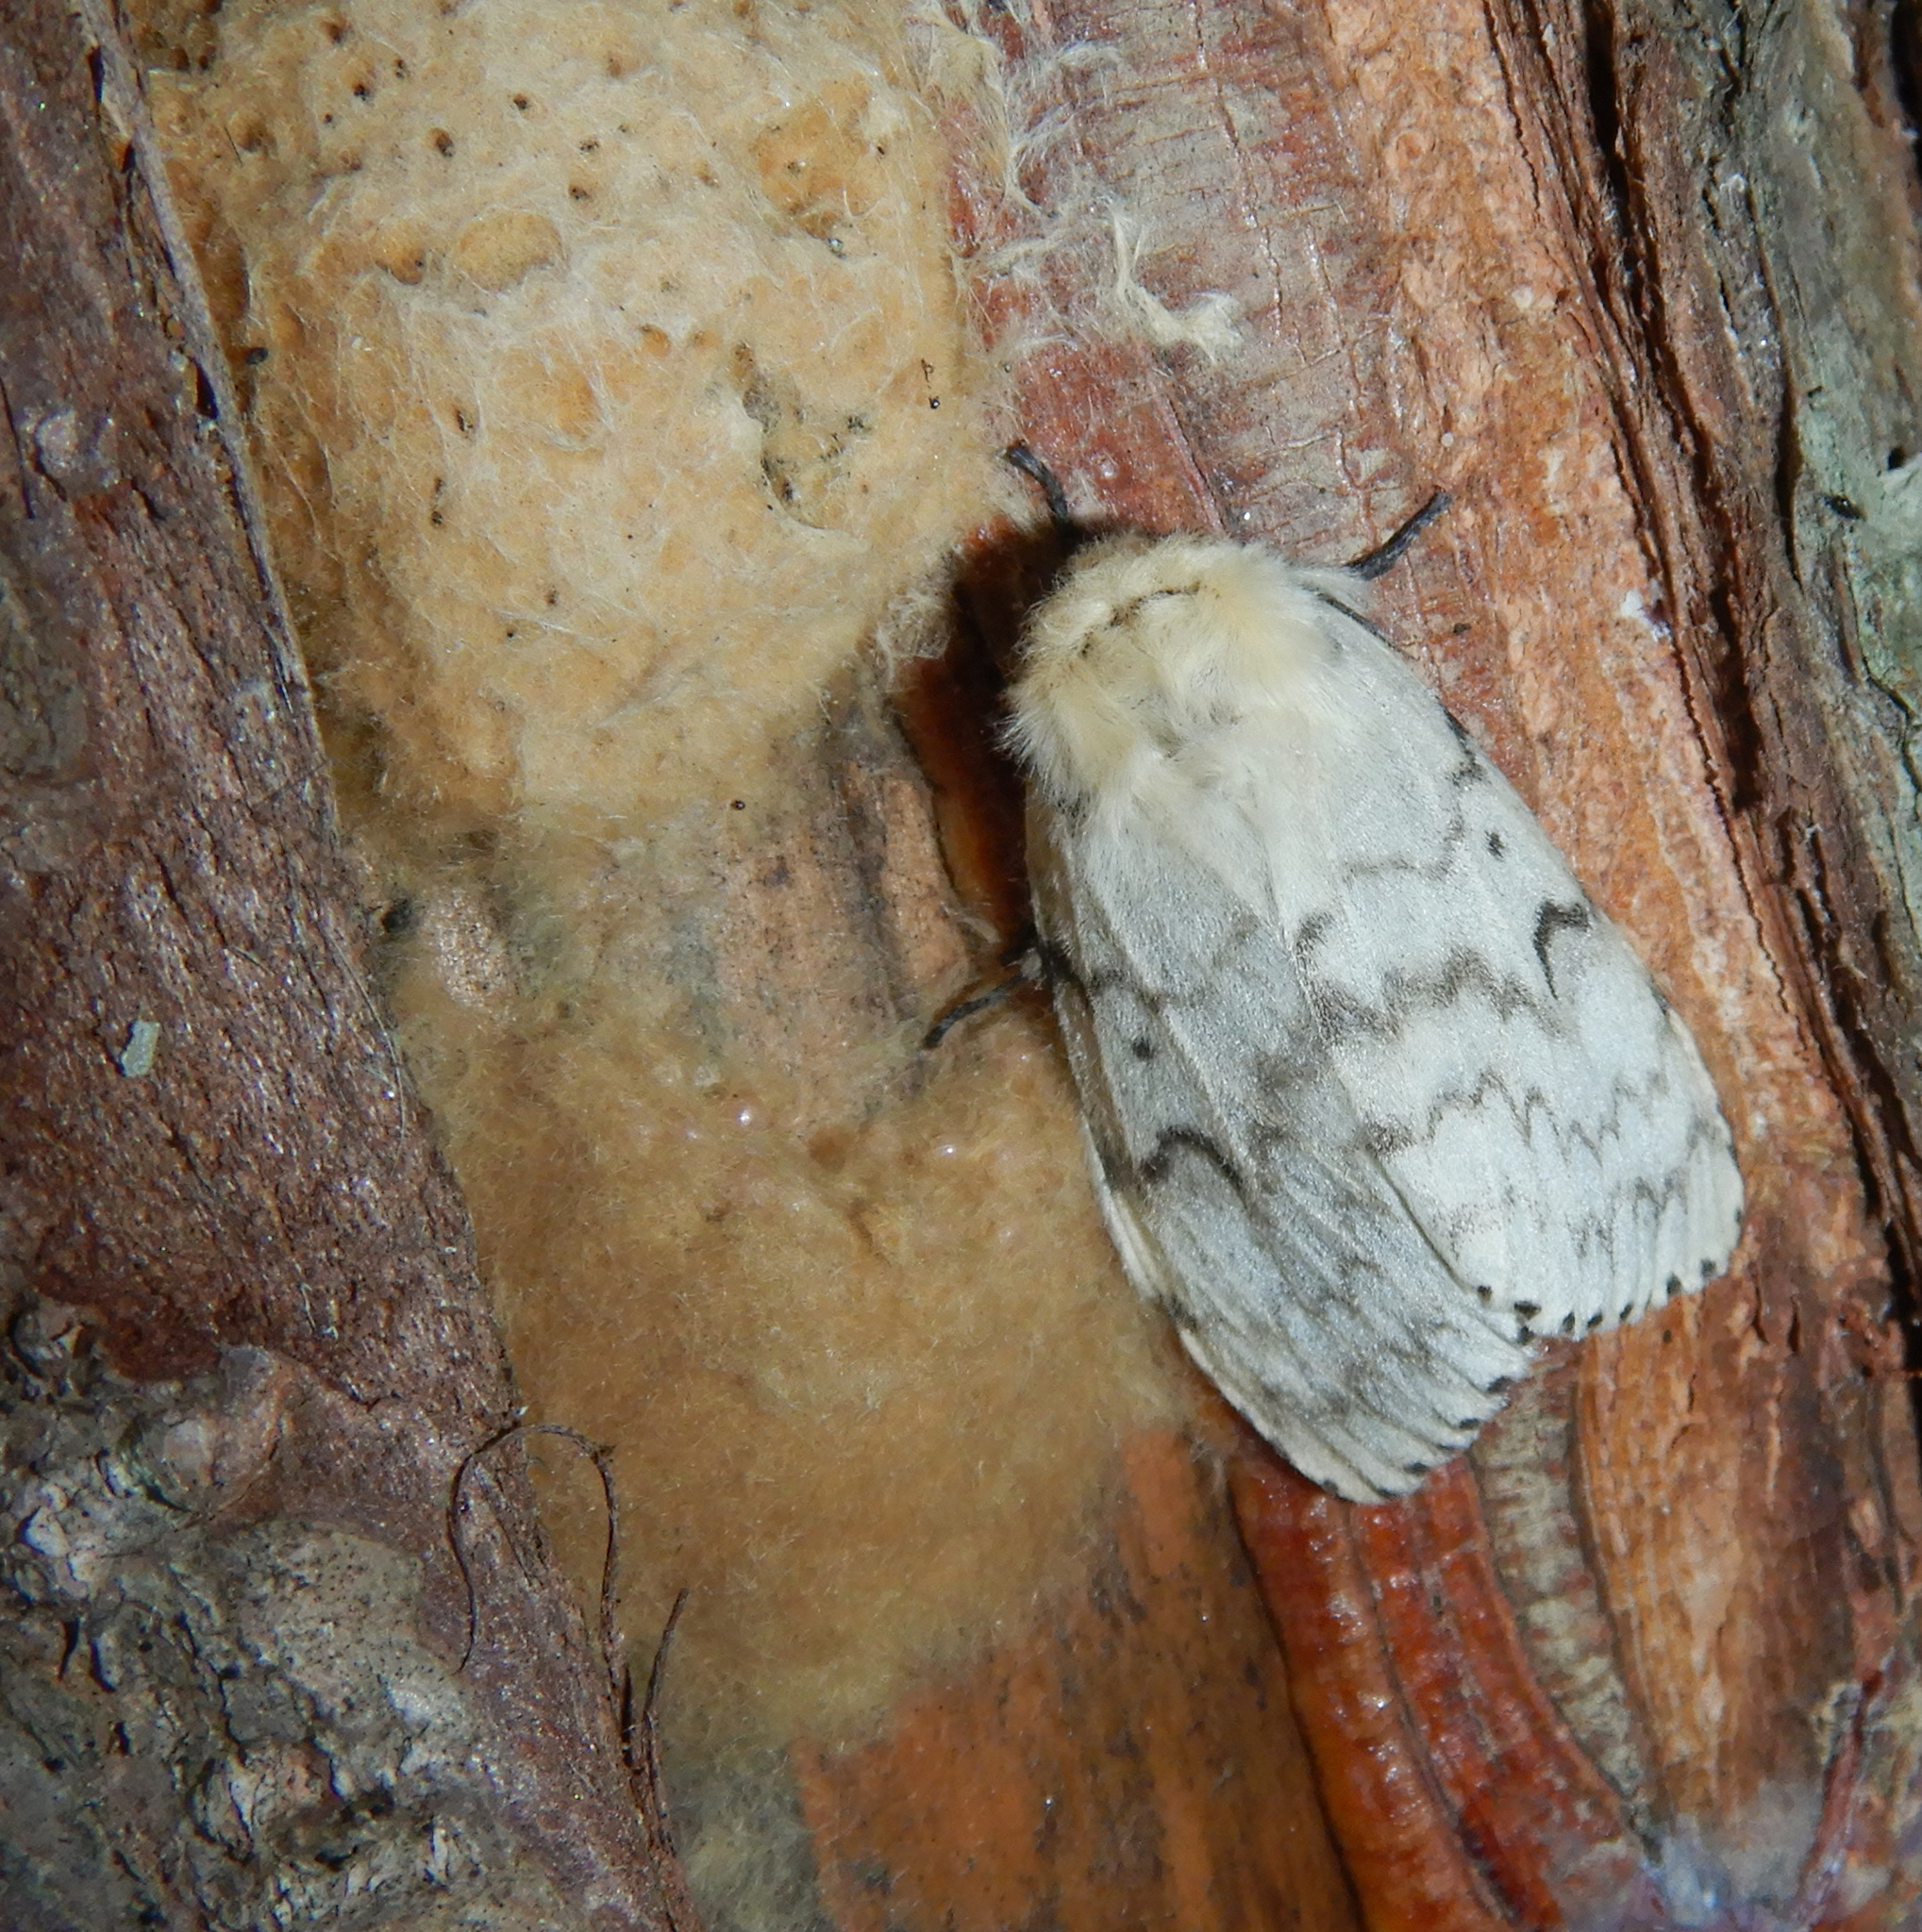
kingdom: Animalia
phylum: Arthropoda
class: Insecta
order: Lepidoptera
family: Erebidae
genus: Lymantria
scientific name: Lymantria dispar
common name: Gypsy moth
